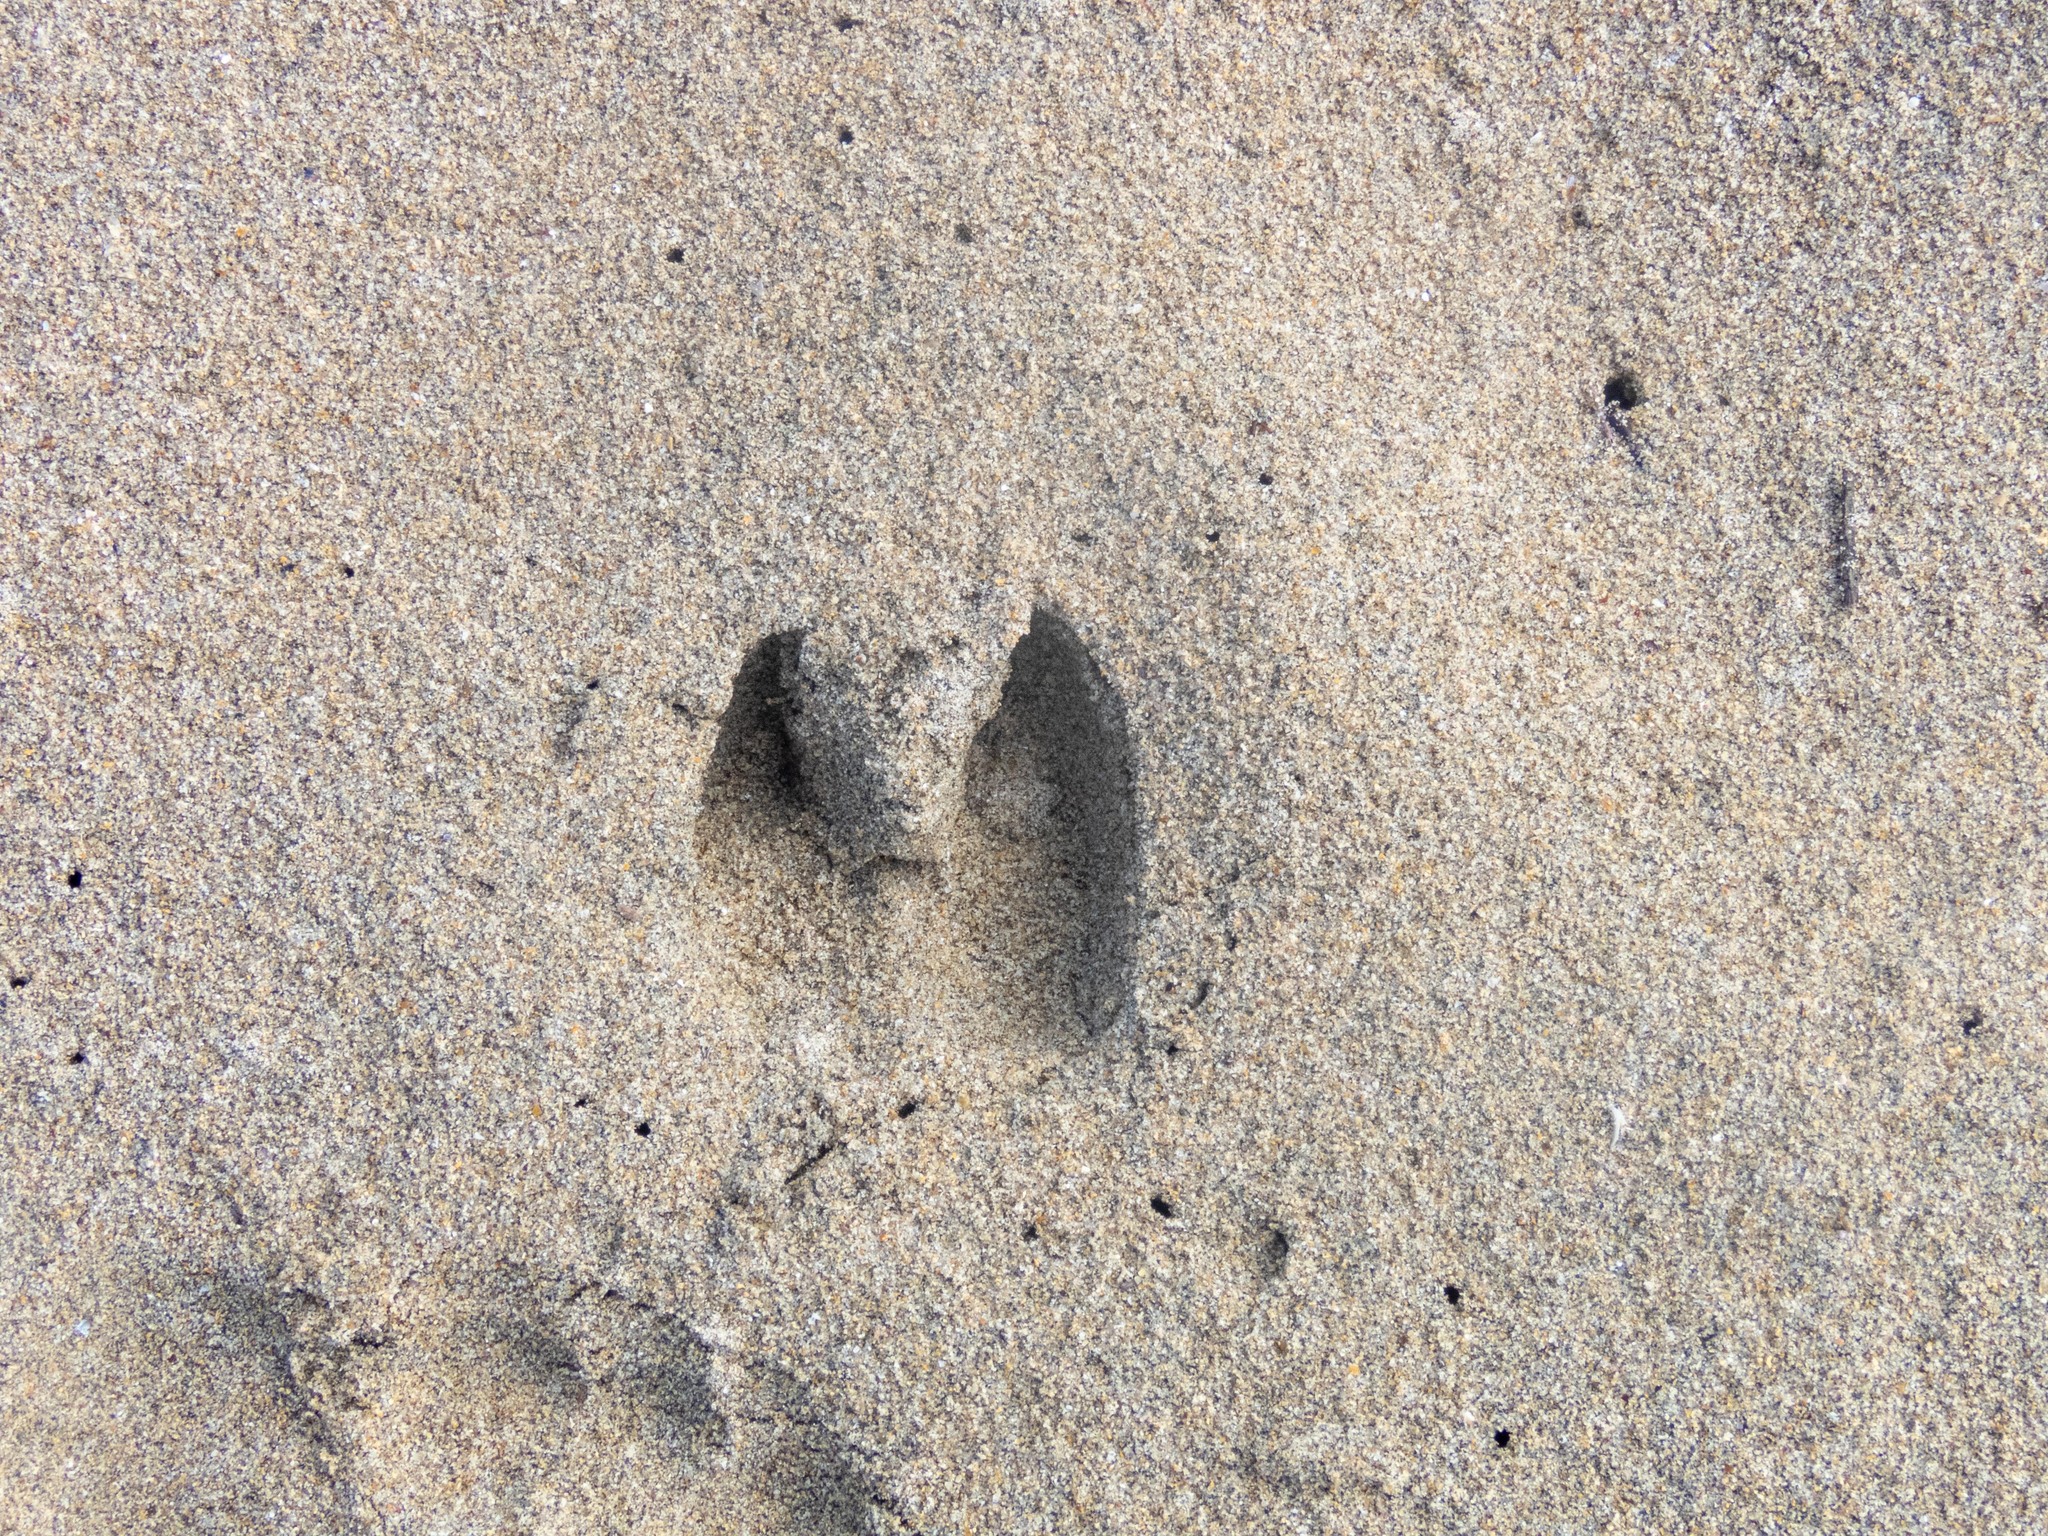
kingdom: Animalia
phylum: Chordata
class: Mammalia
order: Artiodactyla
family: Suidae
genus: Sus
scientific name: Sus scrofa
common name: Wild boar
